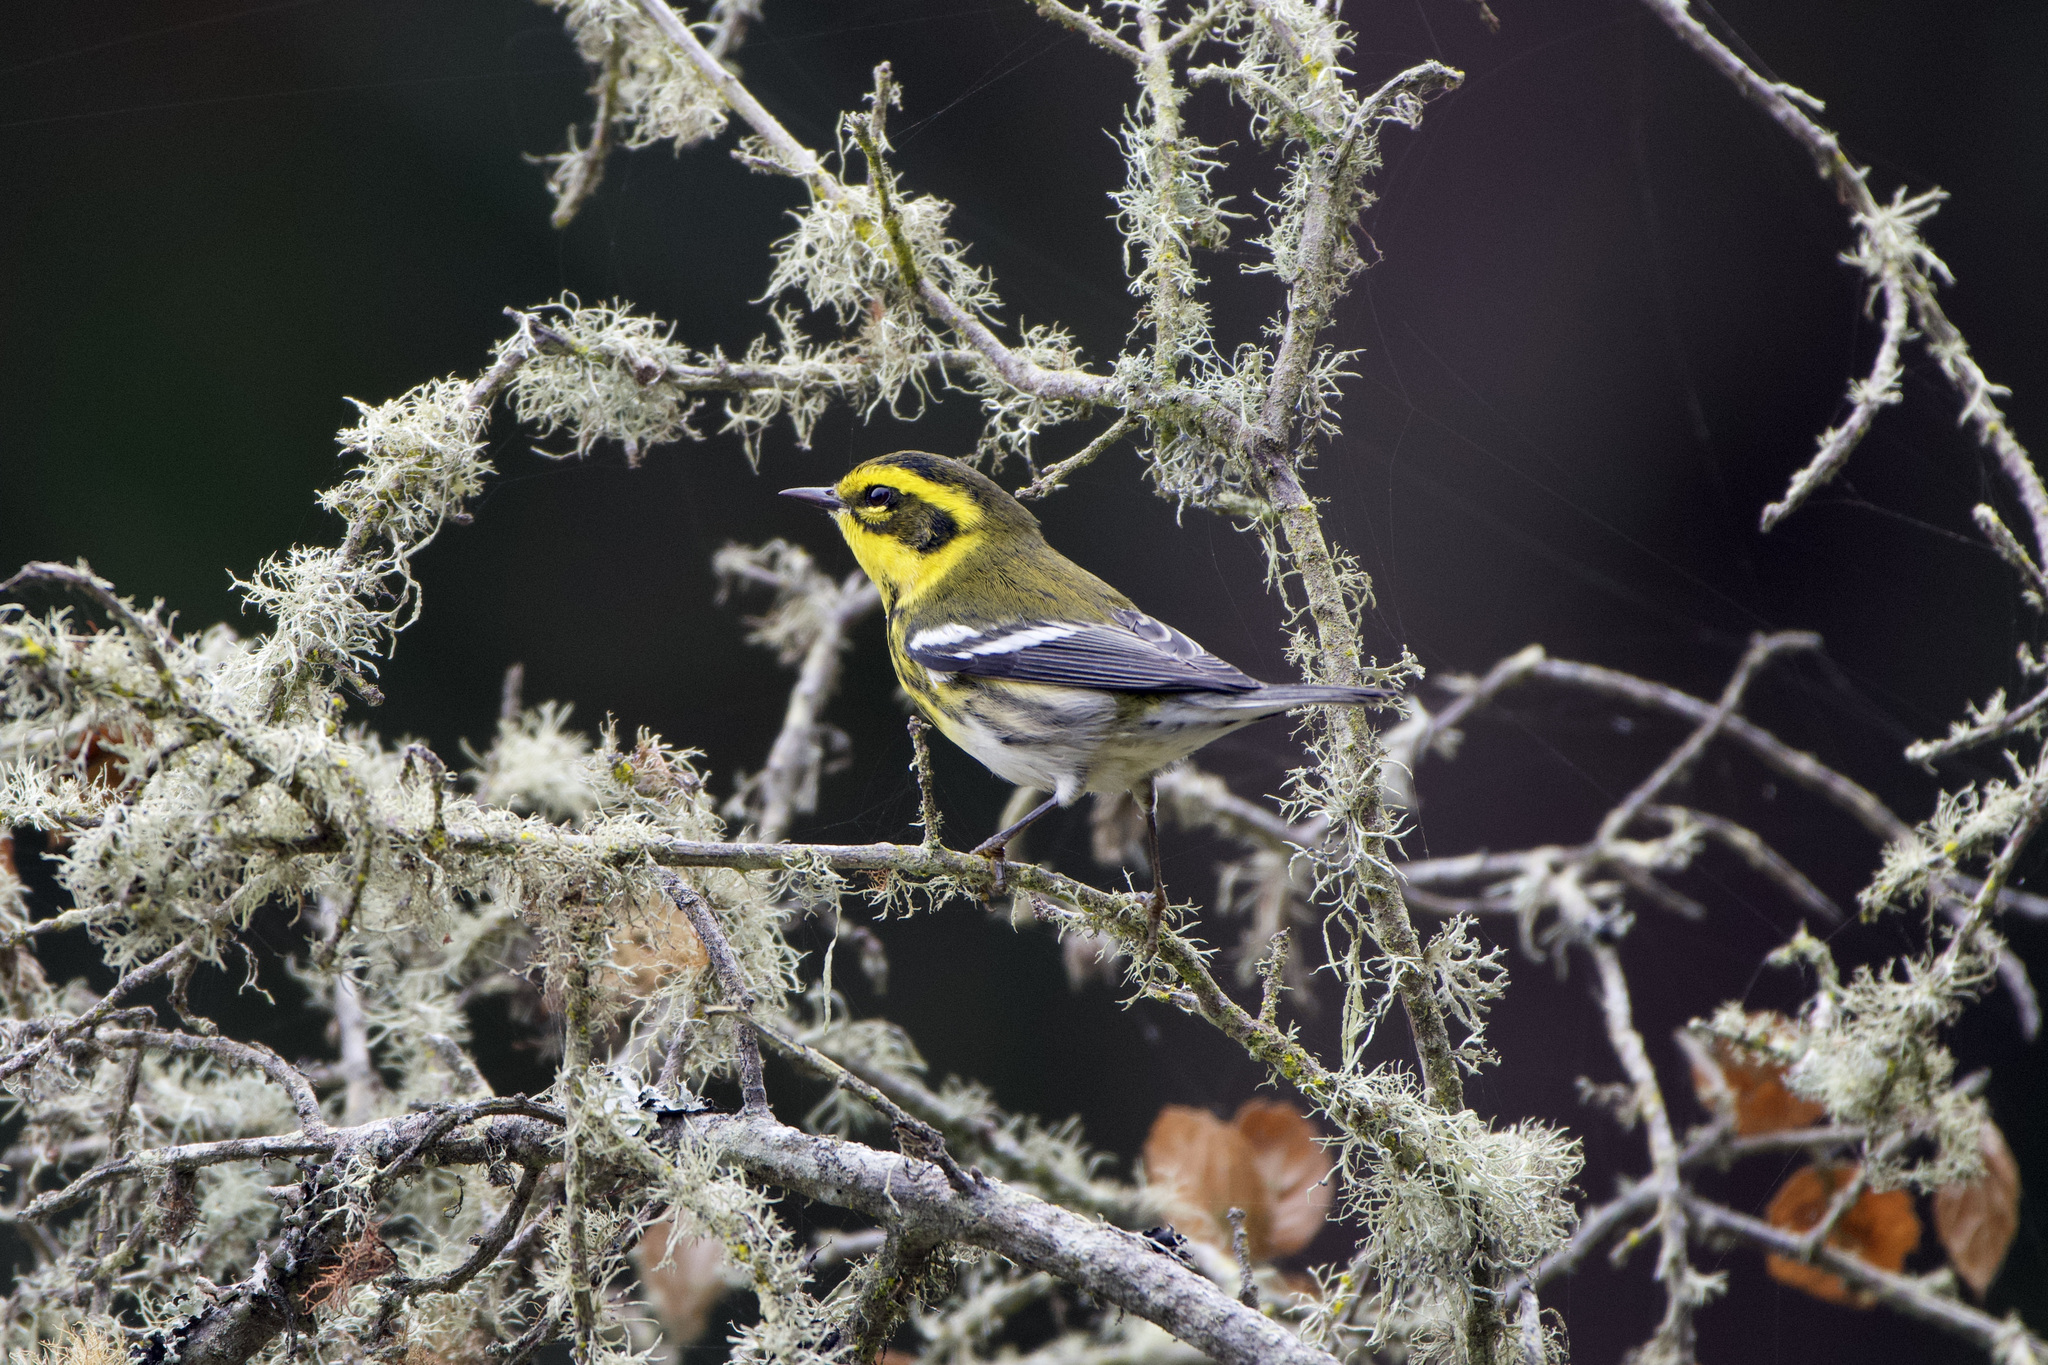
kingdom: Animalia
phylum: Chordata
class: Aves
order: Passeriformes
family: Parulidae
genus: Setophaga
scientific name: Setophaga townsendi
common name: Townsend's warbler
